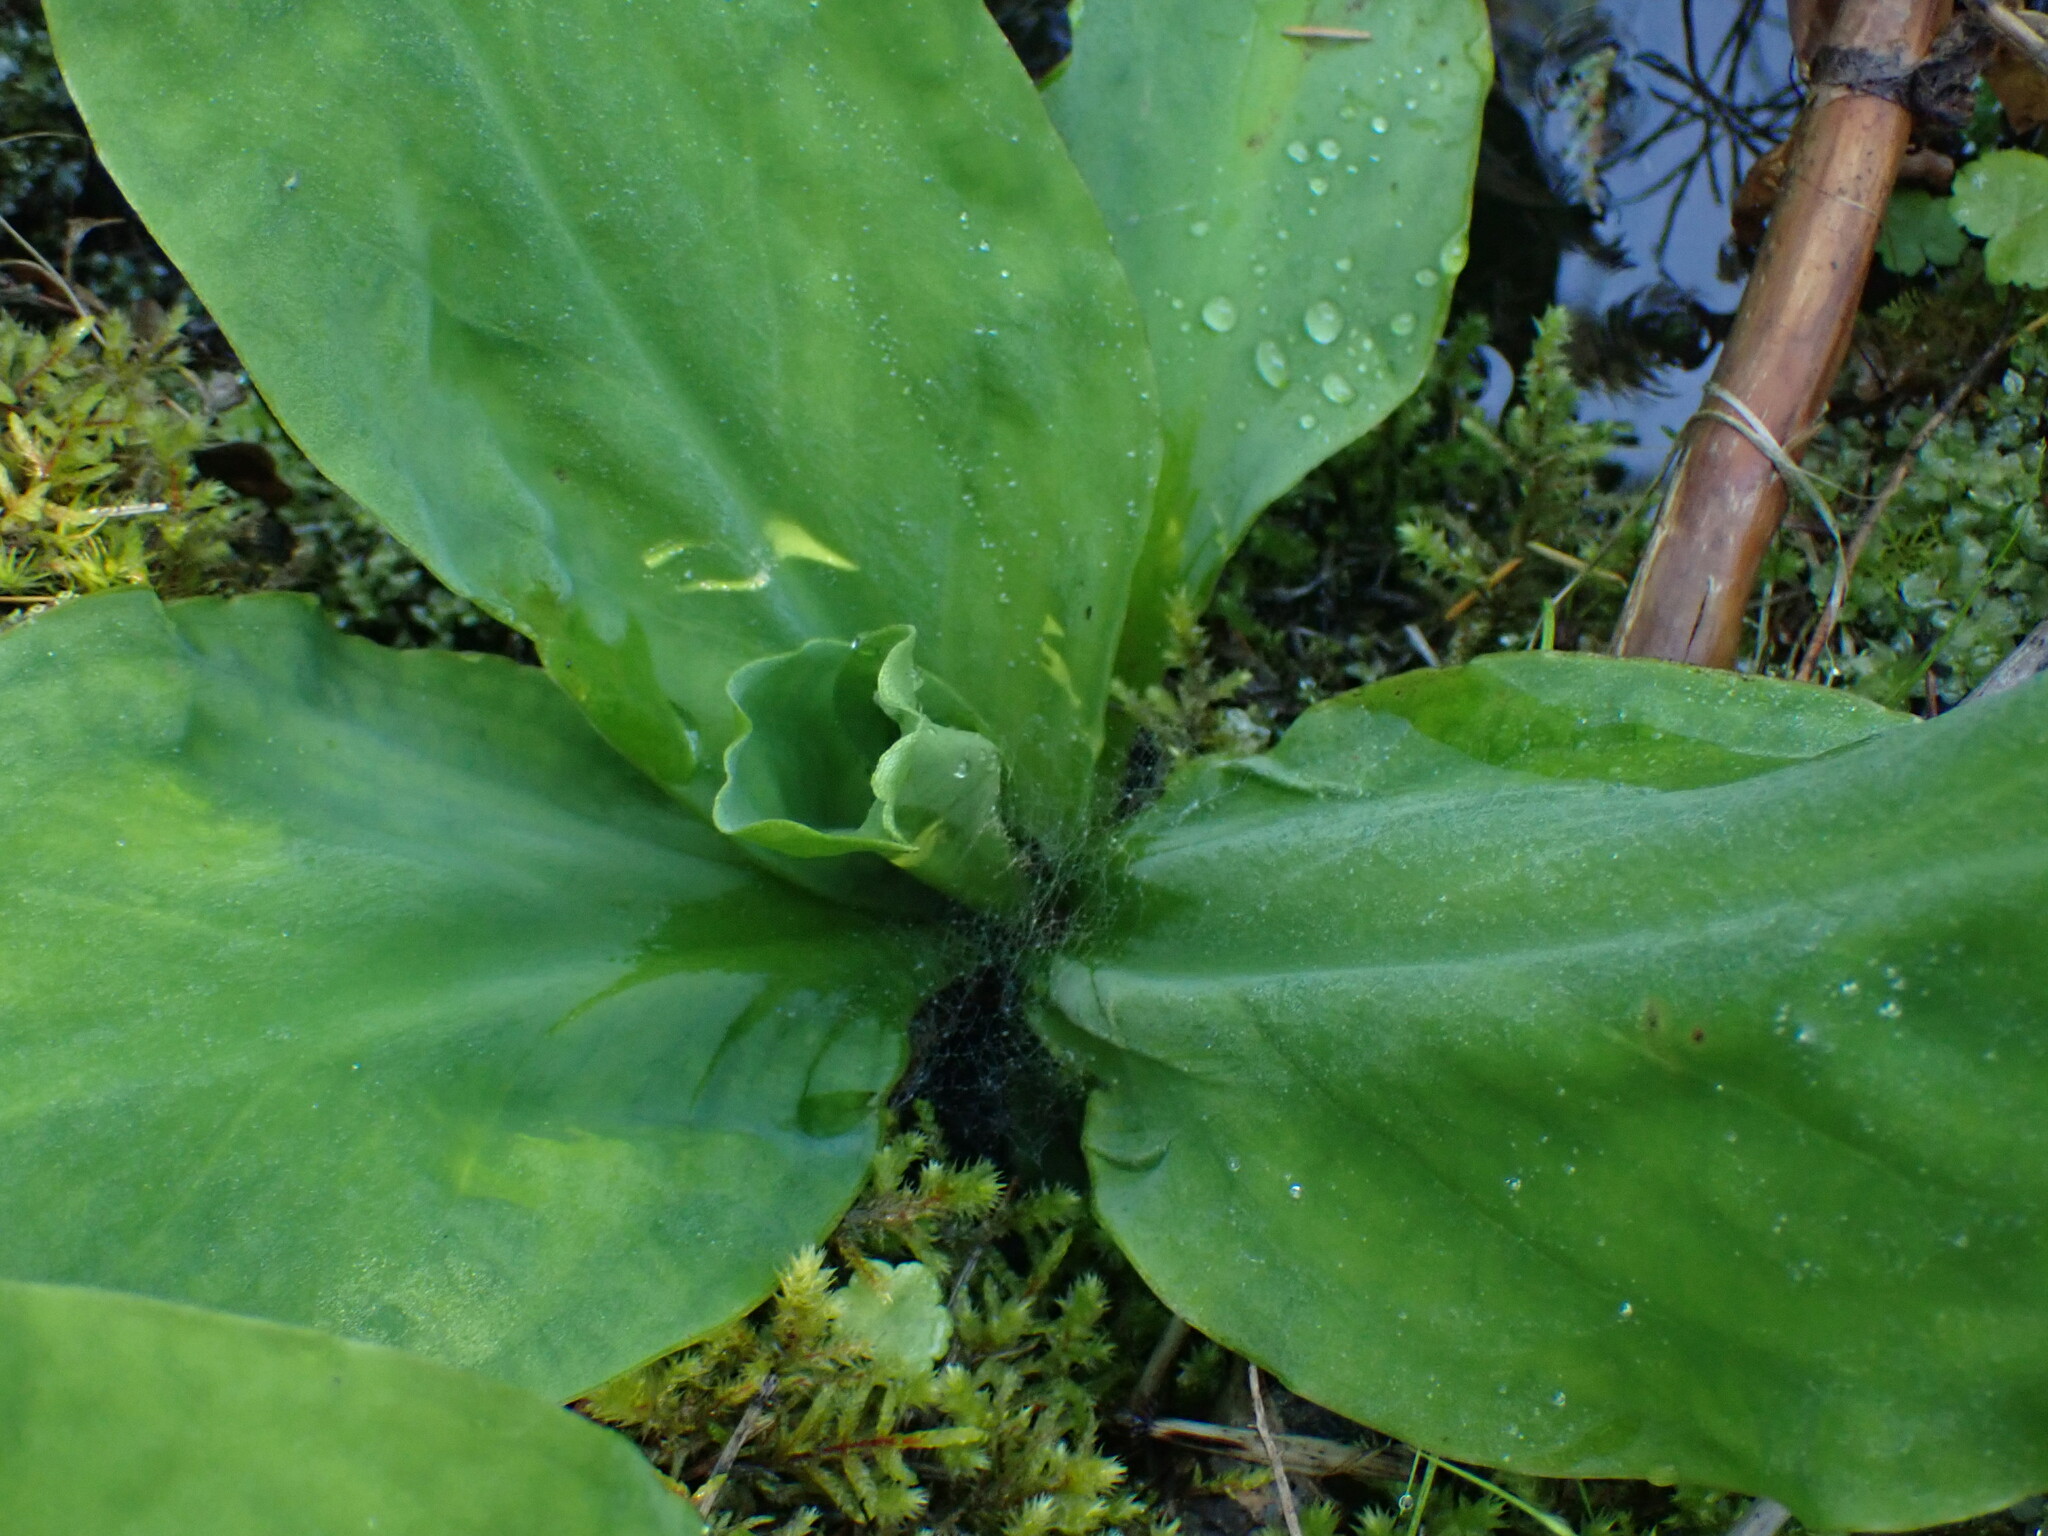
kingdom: Plantae
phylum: Tracheophyta
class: Liliopsida
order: Alismatales
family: Araceae
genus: Lysichiton
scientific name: Lysichiton americanus
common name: American skunk cabbage
